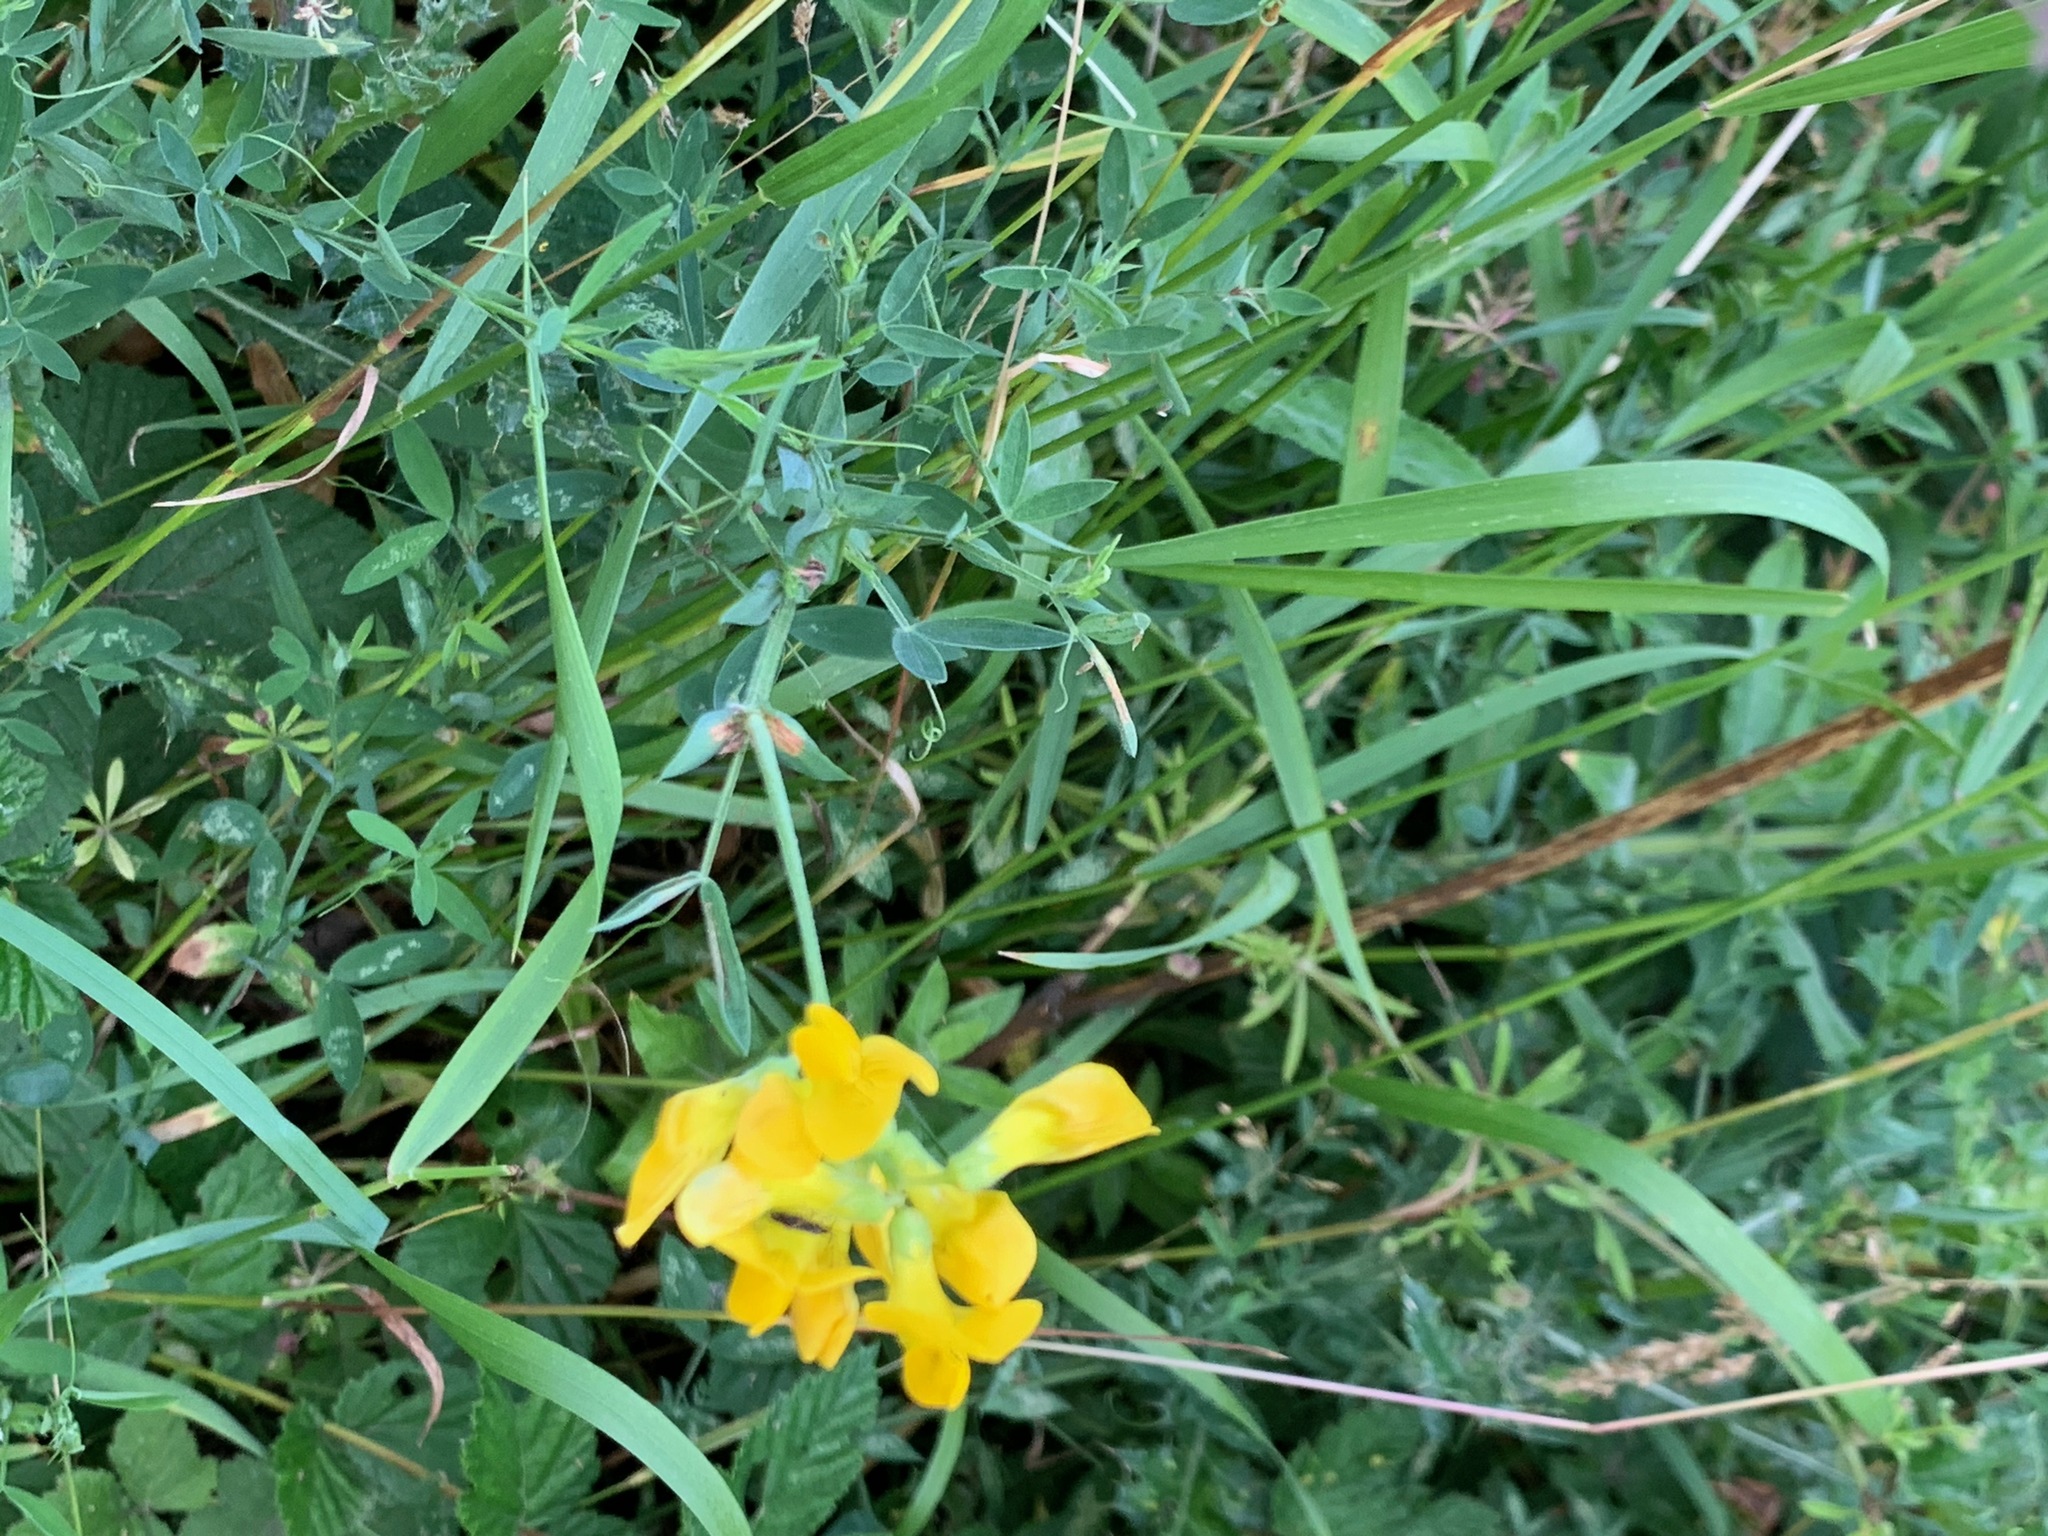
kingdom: Plantae
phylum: Tracheophyta
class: Magnoliopsida
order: Fabales
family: Fabaceae
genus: Lathyrus
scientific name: Lathyrus pratensis
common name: Meadow vetchling
